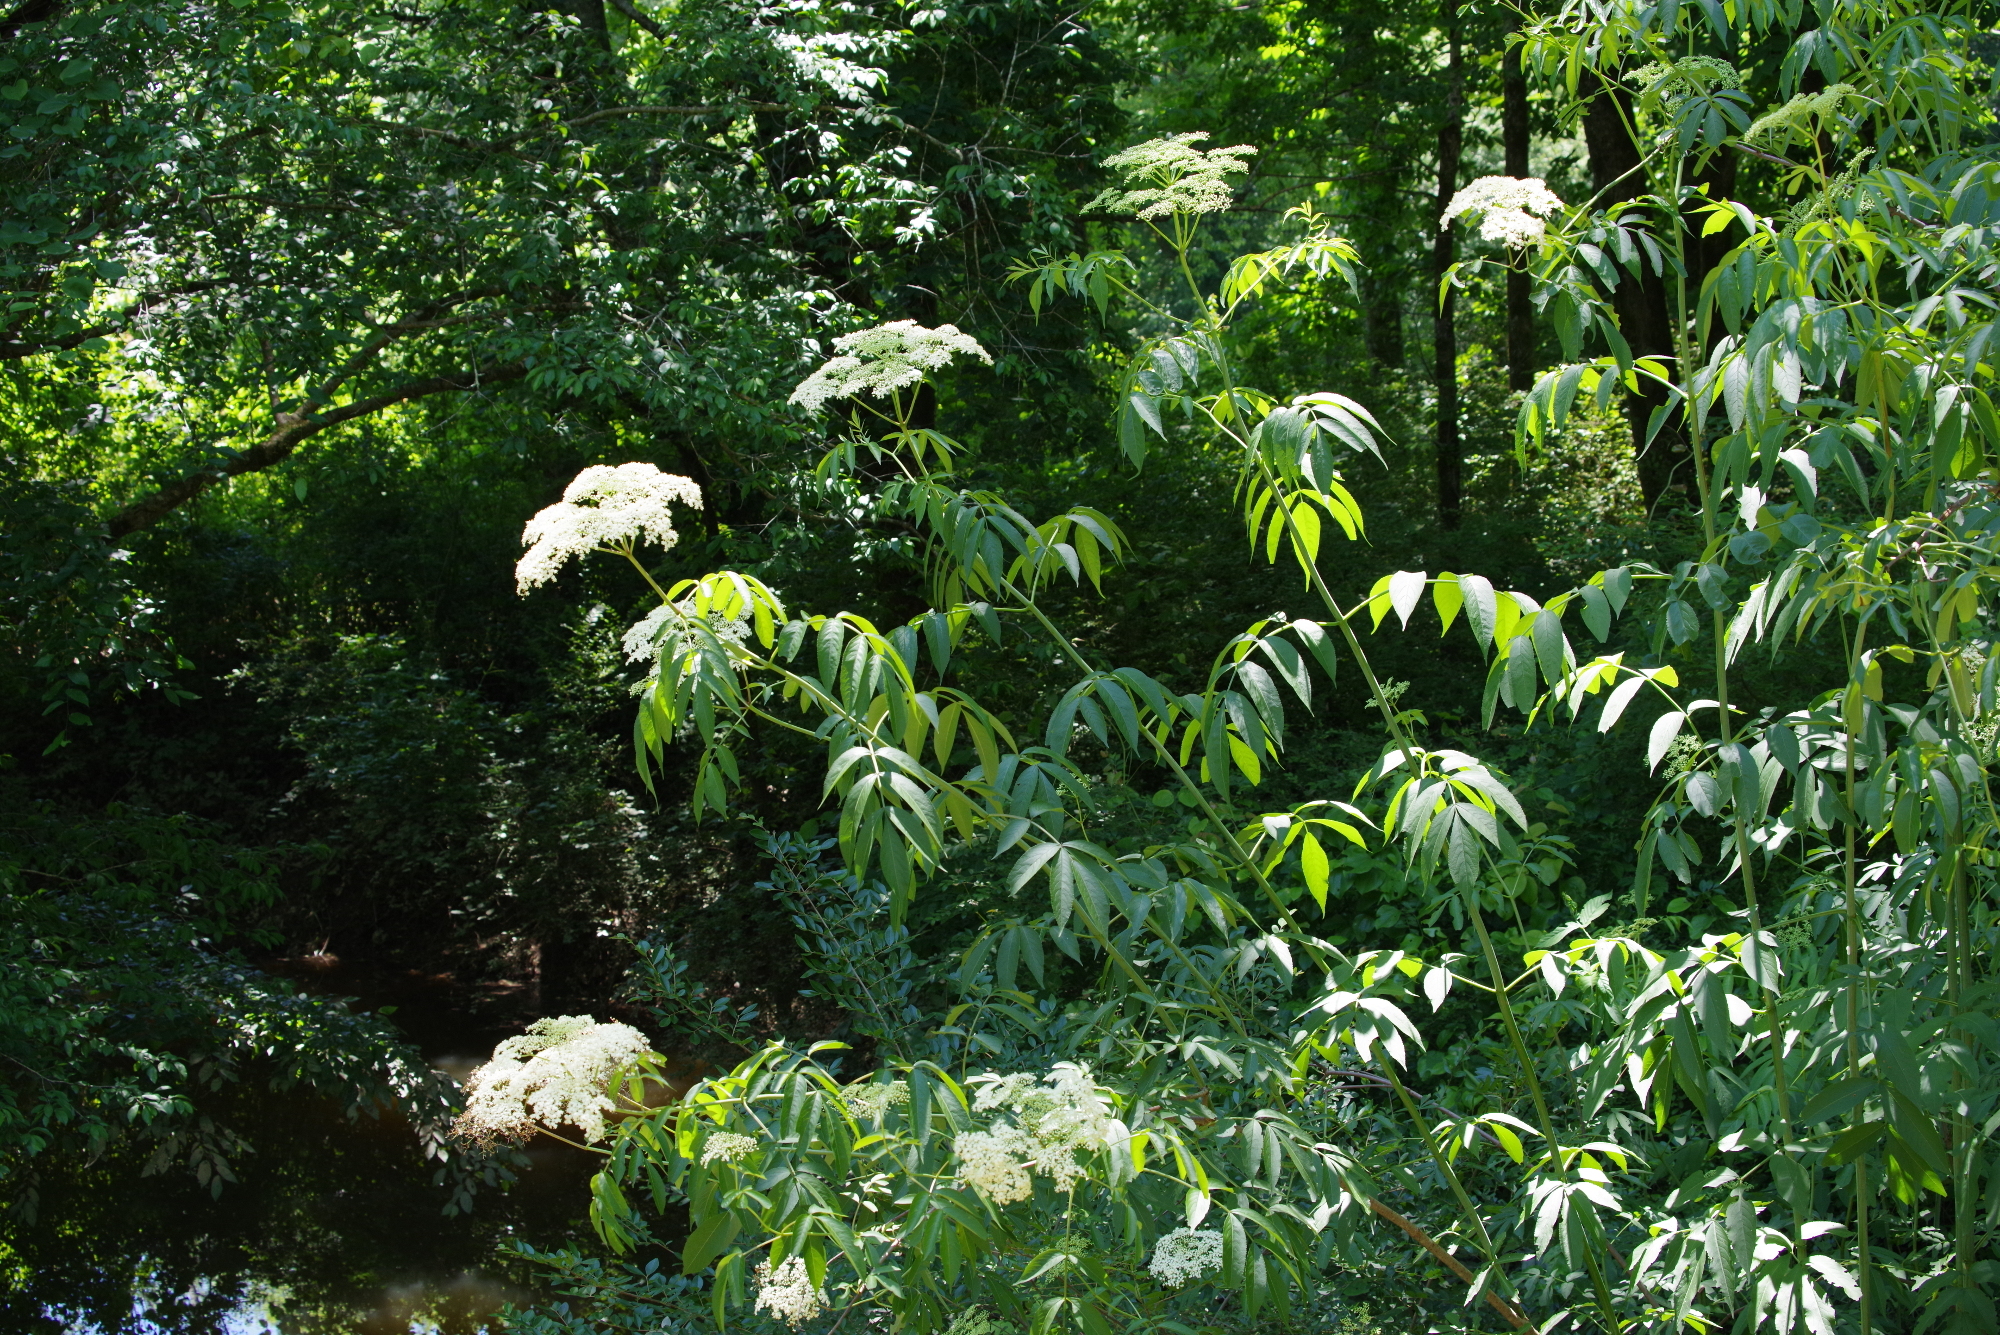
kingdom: Plantae
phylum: Tracheophyta
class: Magnoliopsida
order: Dipsacales
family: Viburnaceae
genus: Sambucus
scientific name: Sambucus canadensis
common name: American elder
